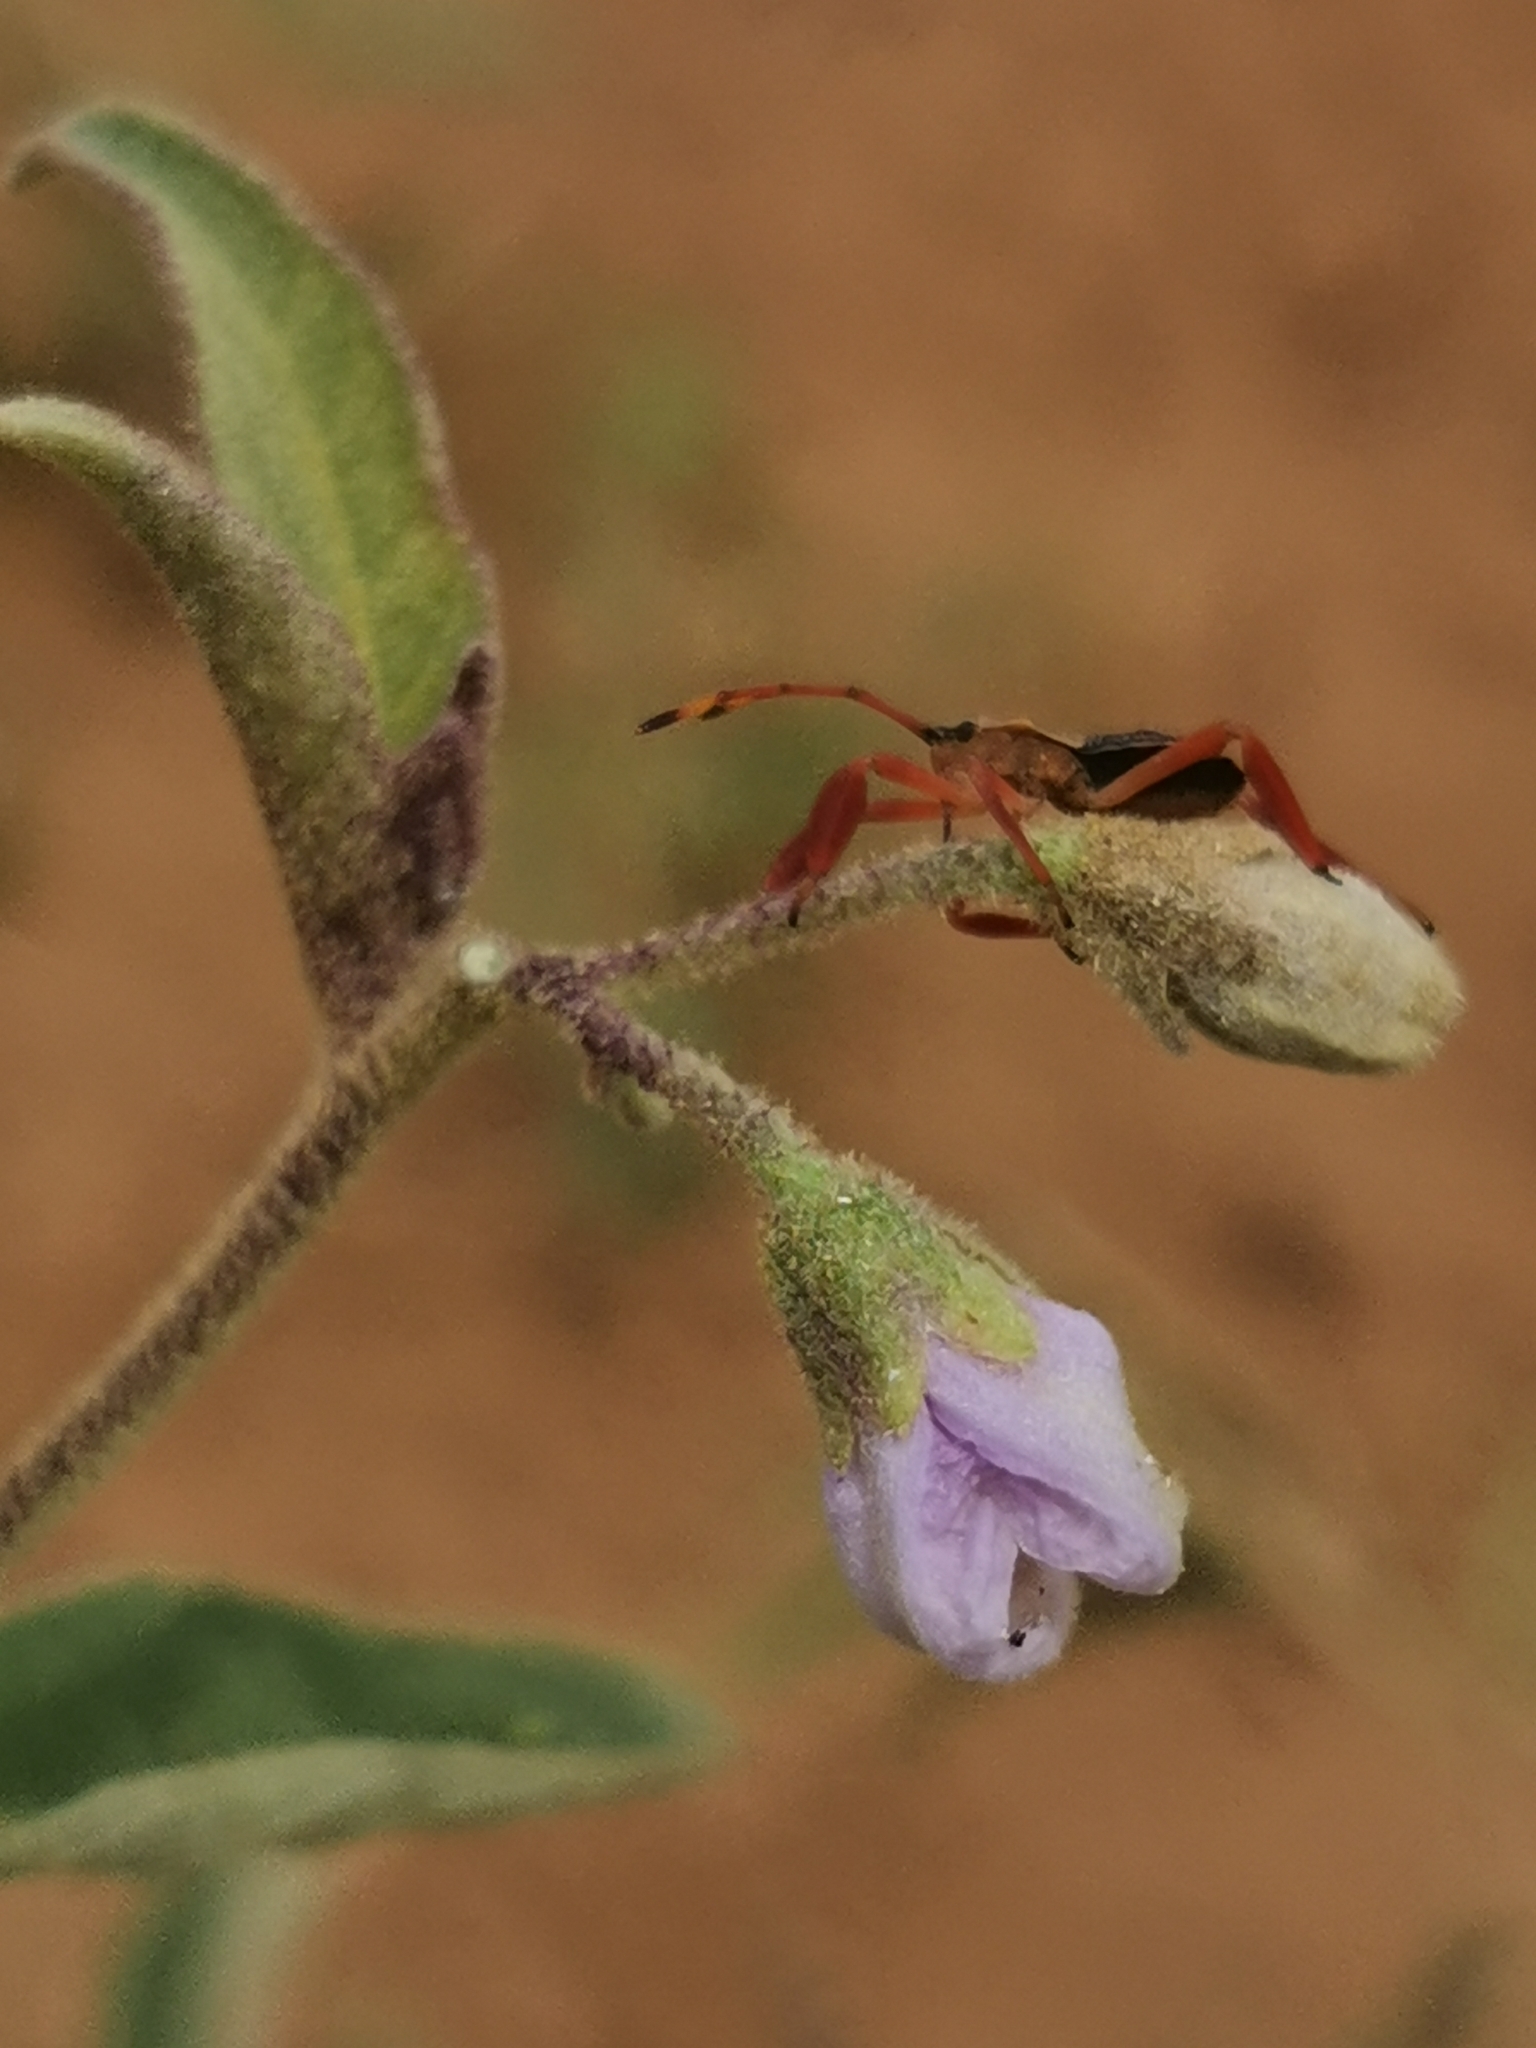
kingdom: Plantae
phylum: Tracheophyta
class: Magnoliopsida
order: Solanales
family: Solanaceae
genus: Solanum
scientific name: Solanum campylacanthum
